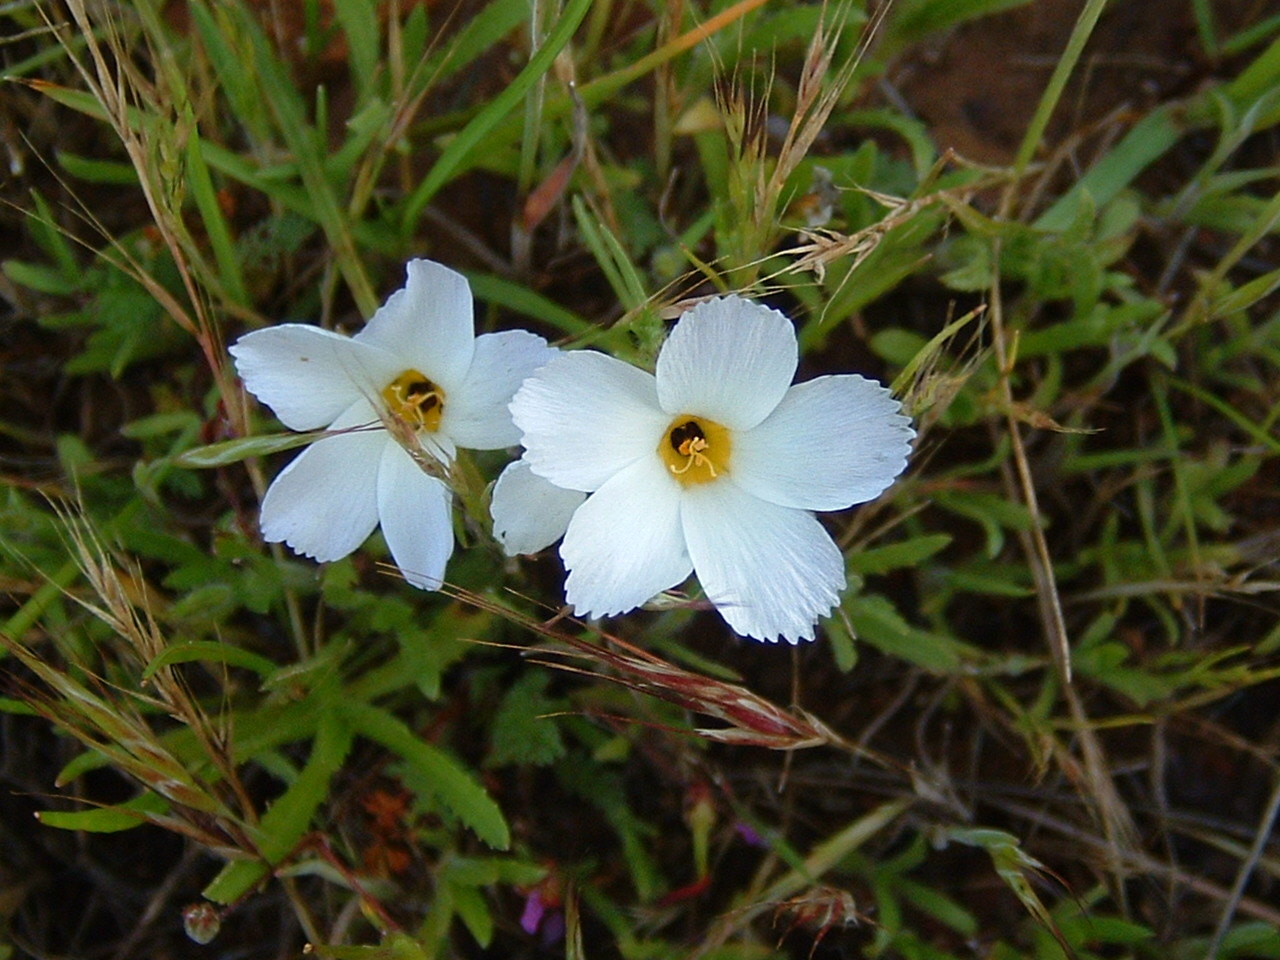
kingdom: Plantae
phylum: Tracheophyta
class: Magnoliopsida
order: Ericales
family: Polemoniaceae
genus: Linanthus
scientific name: Linanthus dianthiflorus
